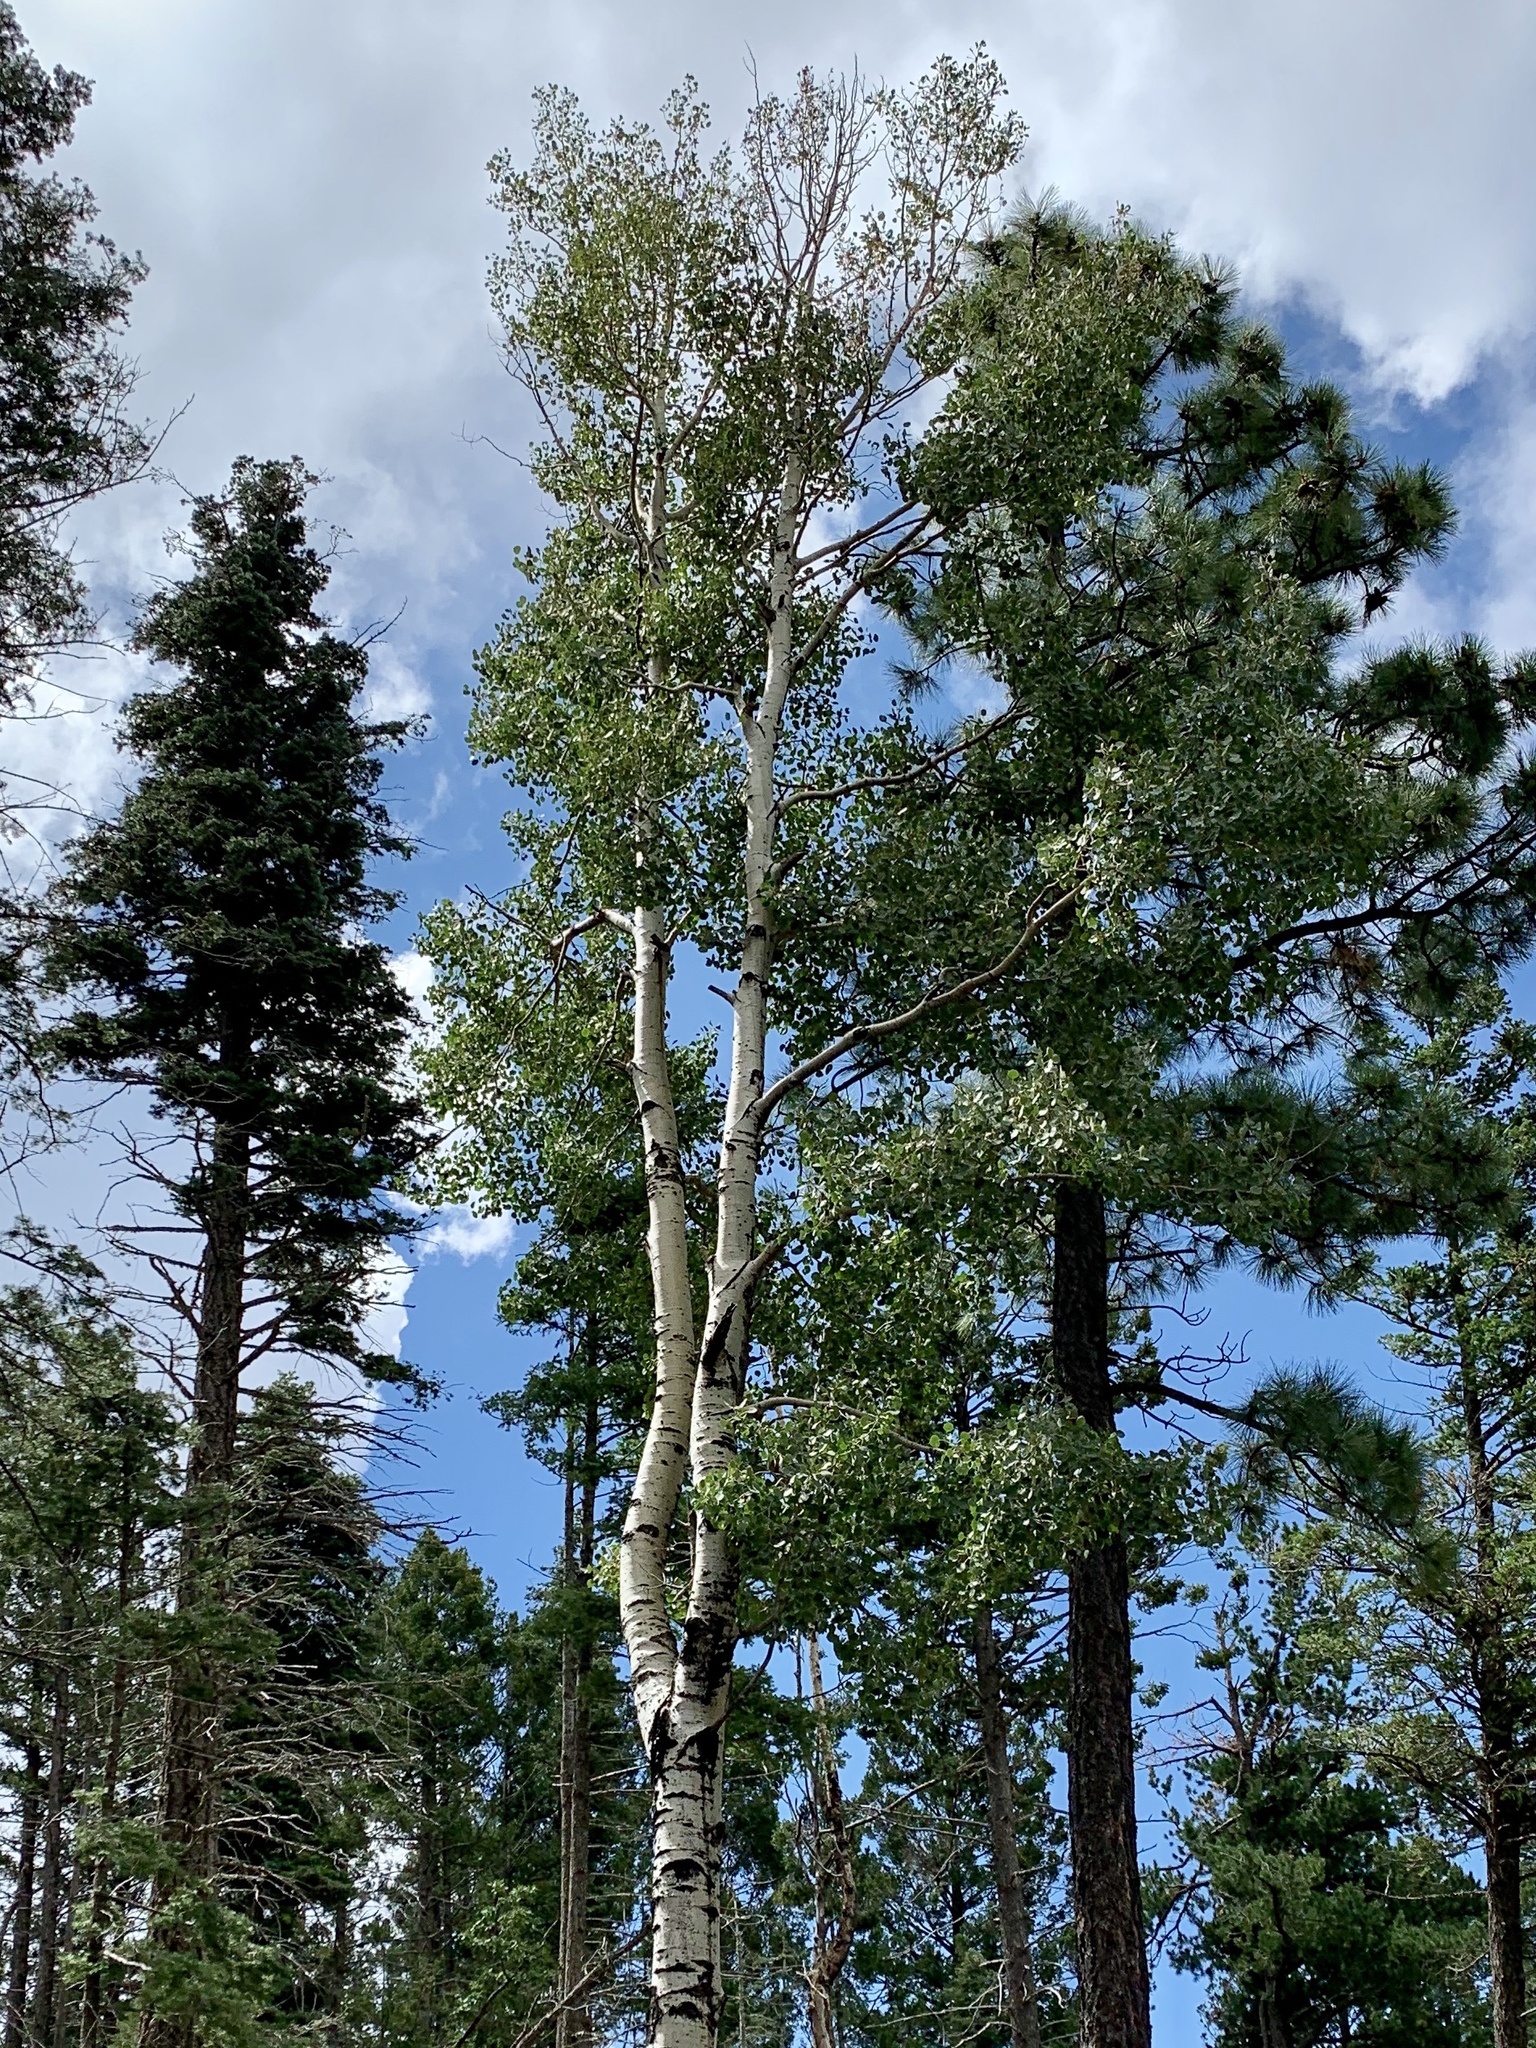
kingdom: Plantae
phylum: Tracheophyta
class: Magnoliopsida
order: Malpighiales
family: Salicaceae
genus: Populus
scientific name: Populus tremuloides
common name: Quaking aspen
